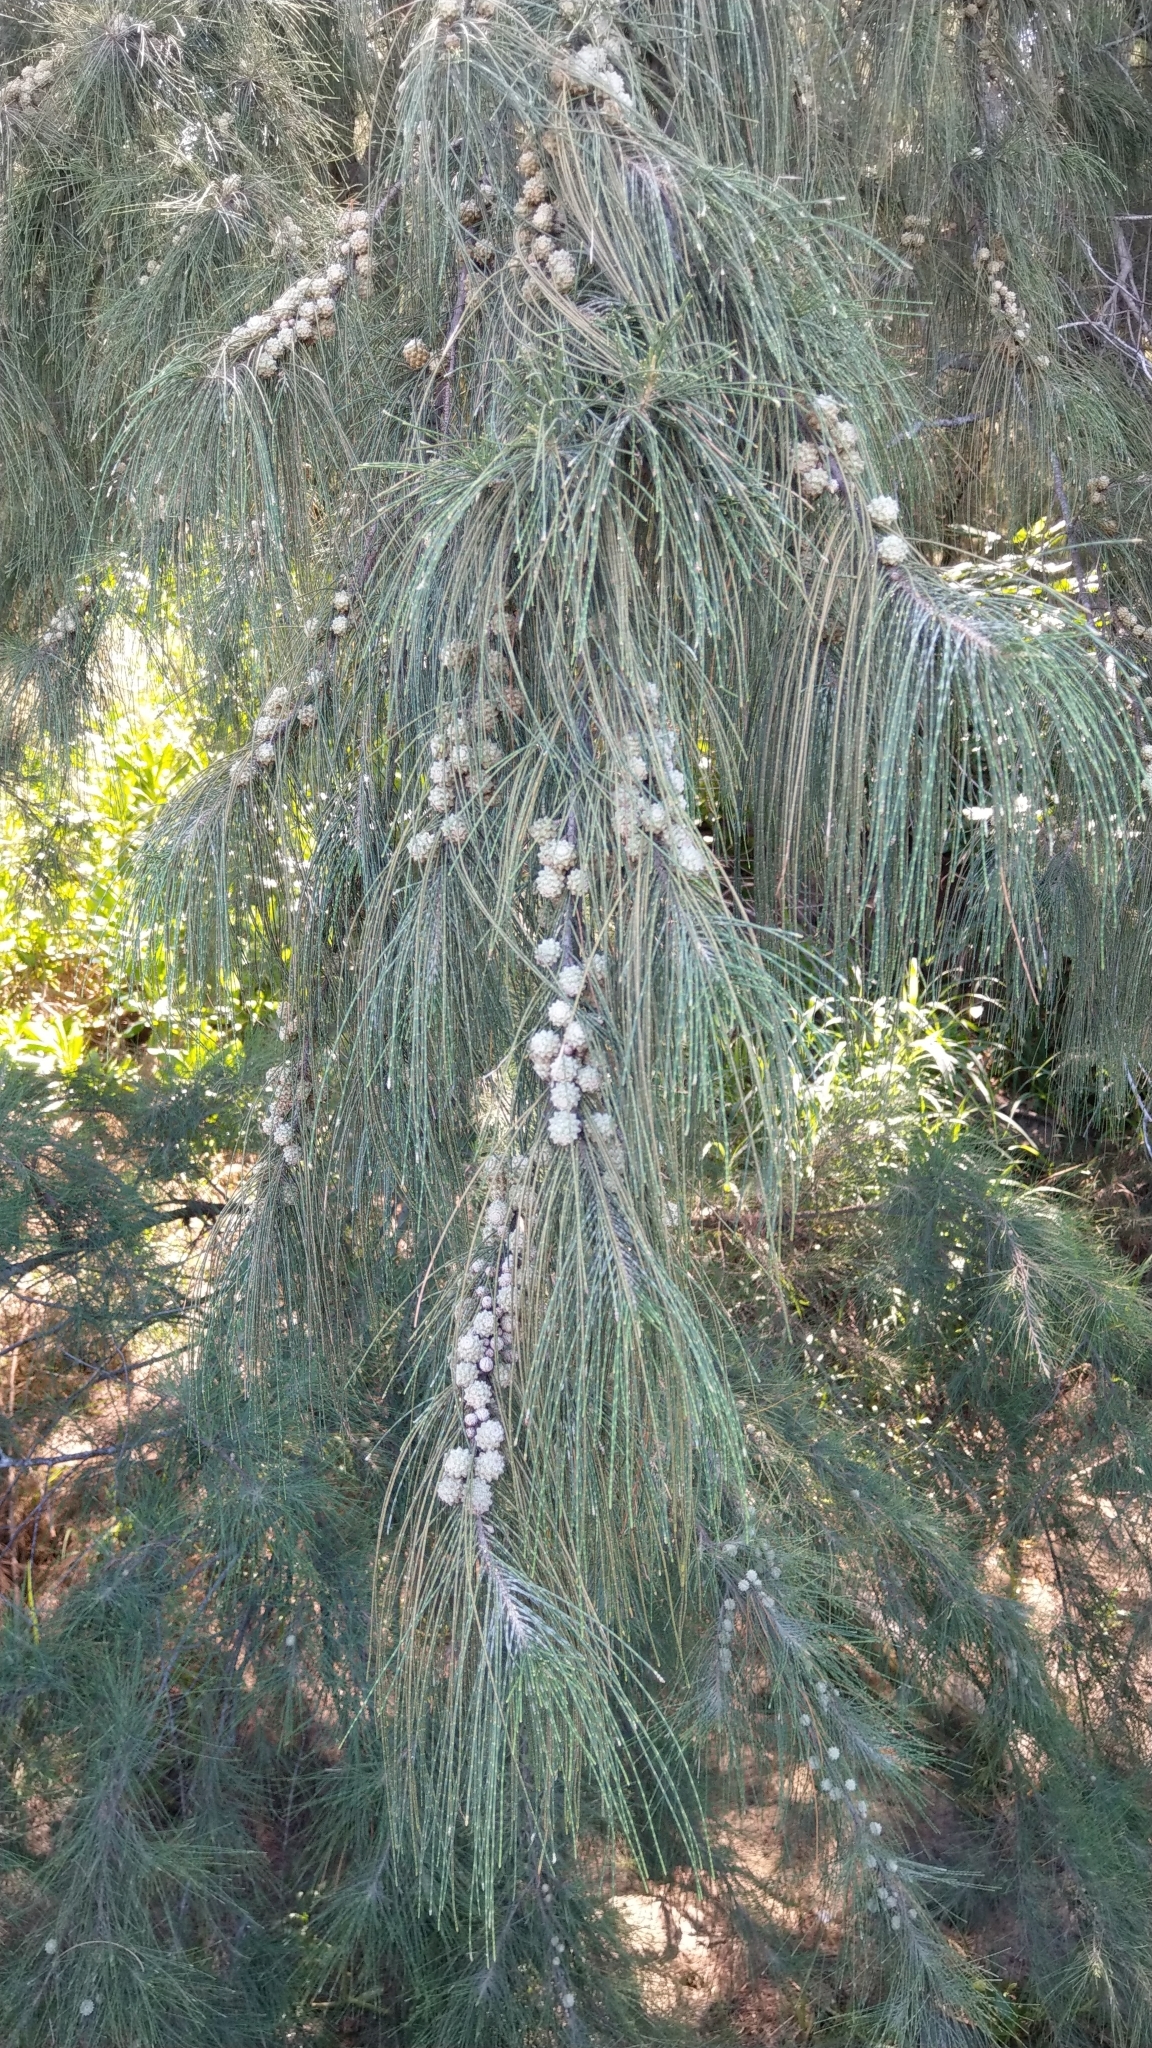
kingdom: Plantae
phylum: Tracheophyta
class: Magnoliopsida
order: Fagales
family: Casuarinaceae
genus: Casuarina
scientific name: Casuarina equisetifolia
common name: Beach sheoak
